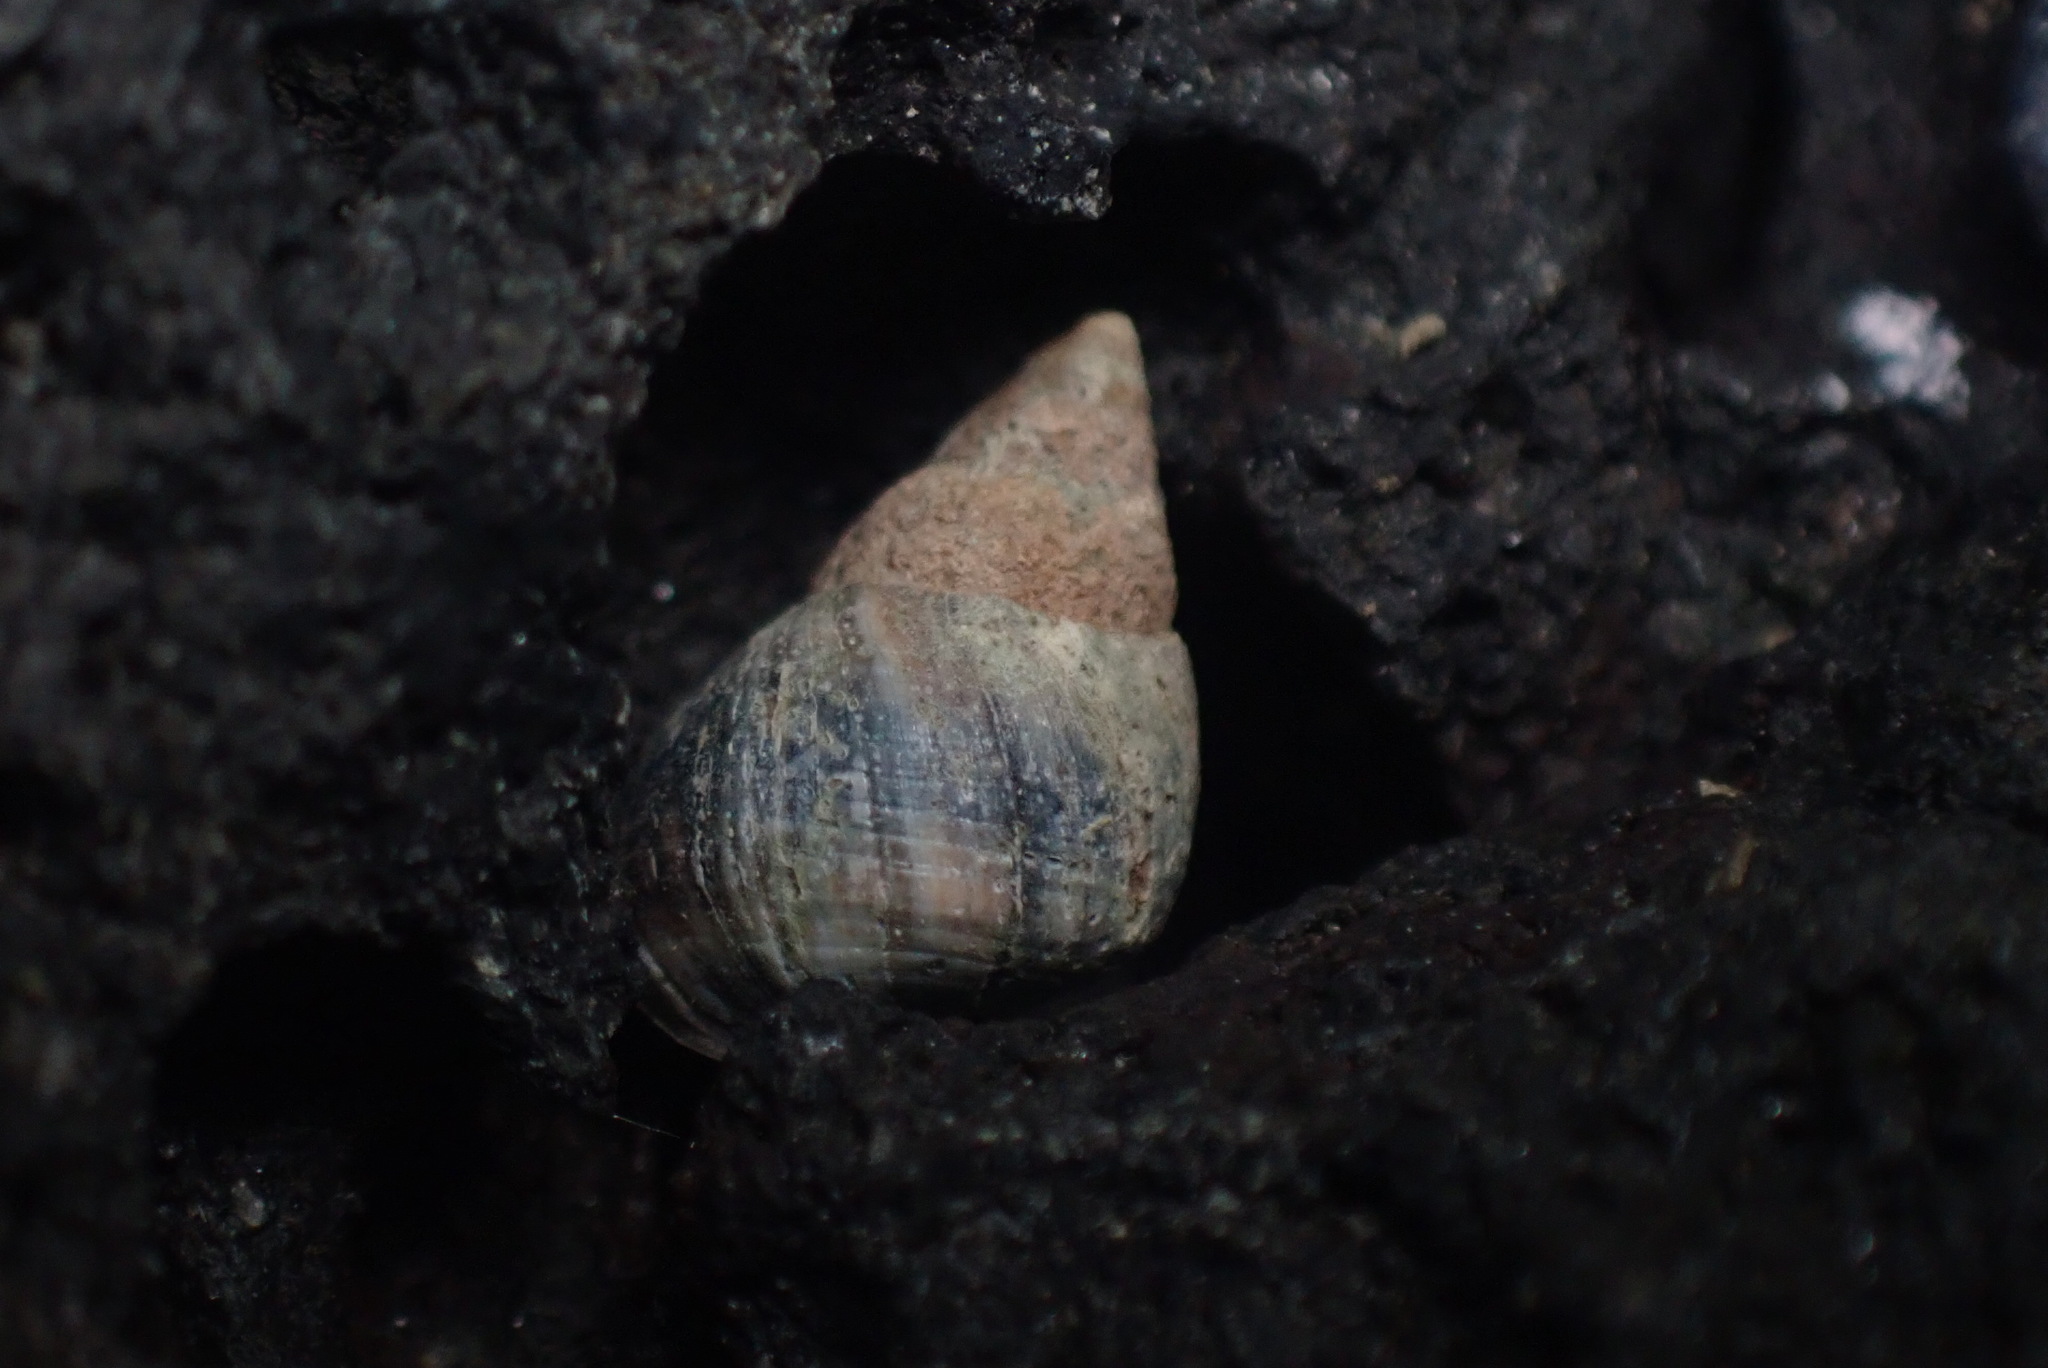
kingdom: Animalia
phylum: Mollusca
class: Gastropoda
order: Littorinimorpha
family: Littorinidae
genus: Austrolittorina
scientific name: Austrolittorina antipodum
